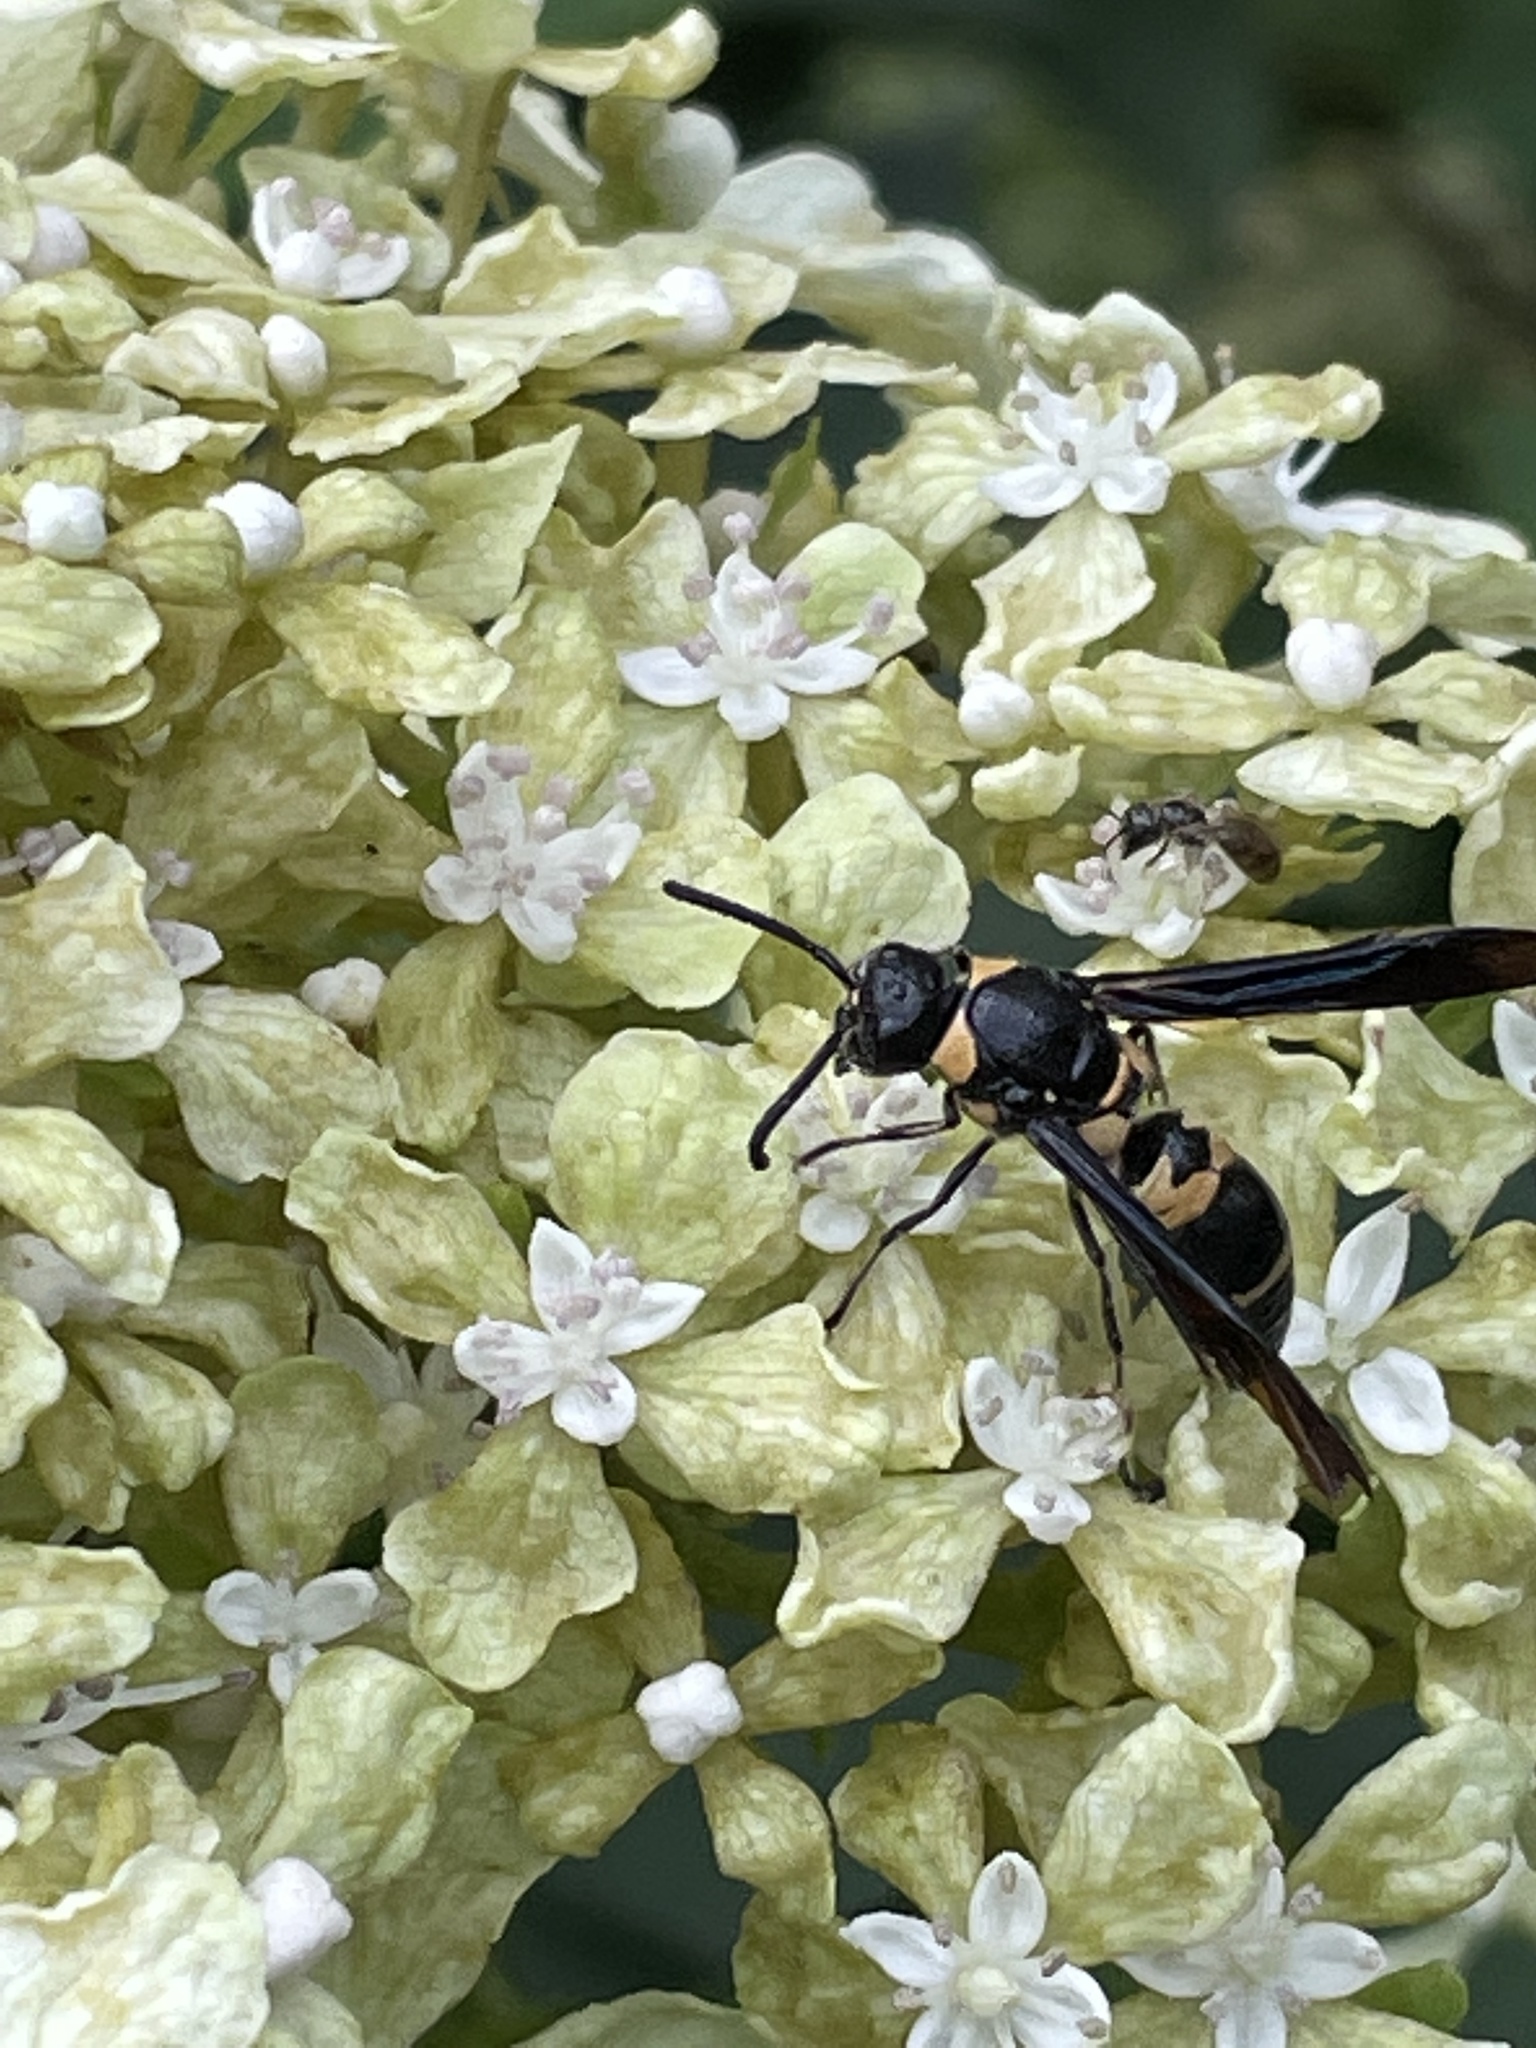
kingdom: Animalia
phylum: Arthropoda
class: Insecta
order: Hymenoptera
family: Eumenidae
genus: Pseudodynerus
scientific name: Pseudodynerus quadrisectus
